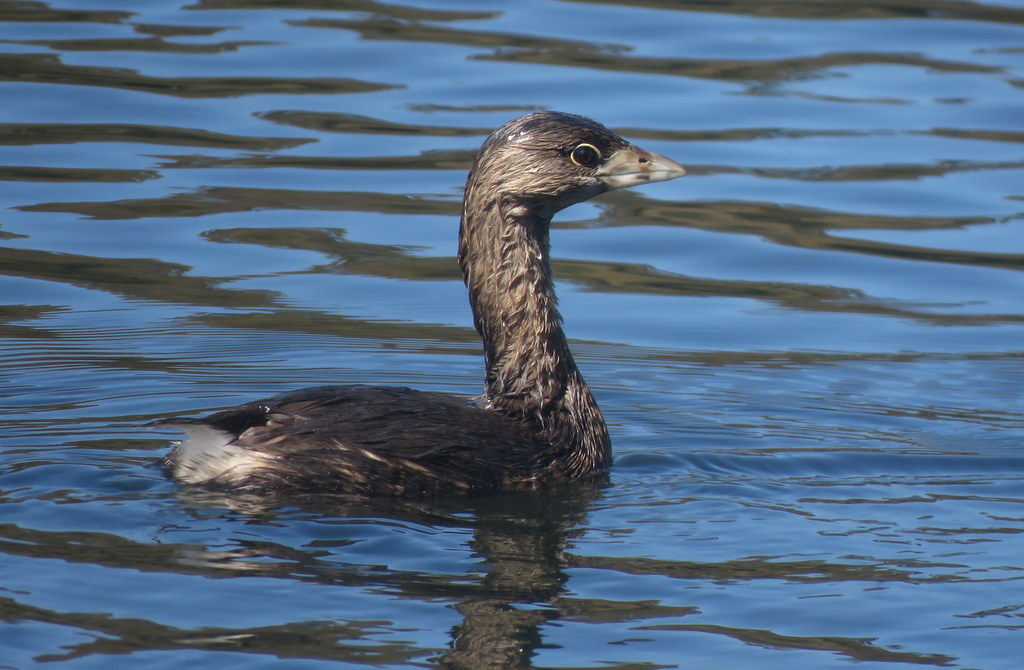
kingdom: Animalia
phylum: Chordata
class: Aves
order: Podicipediformes
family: Podicipedidae
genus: Podilymbus
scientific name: Podilymbus podiceps
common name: Pied-billed grebe
